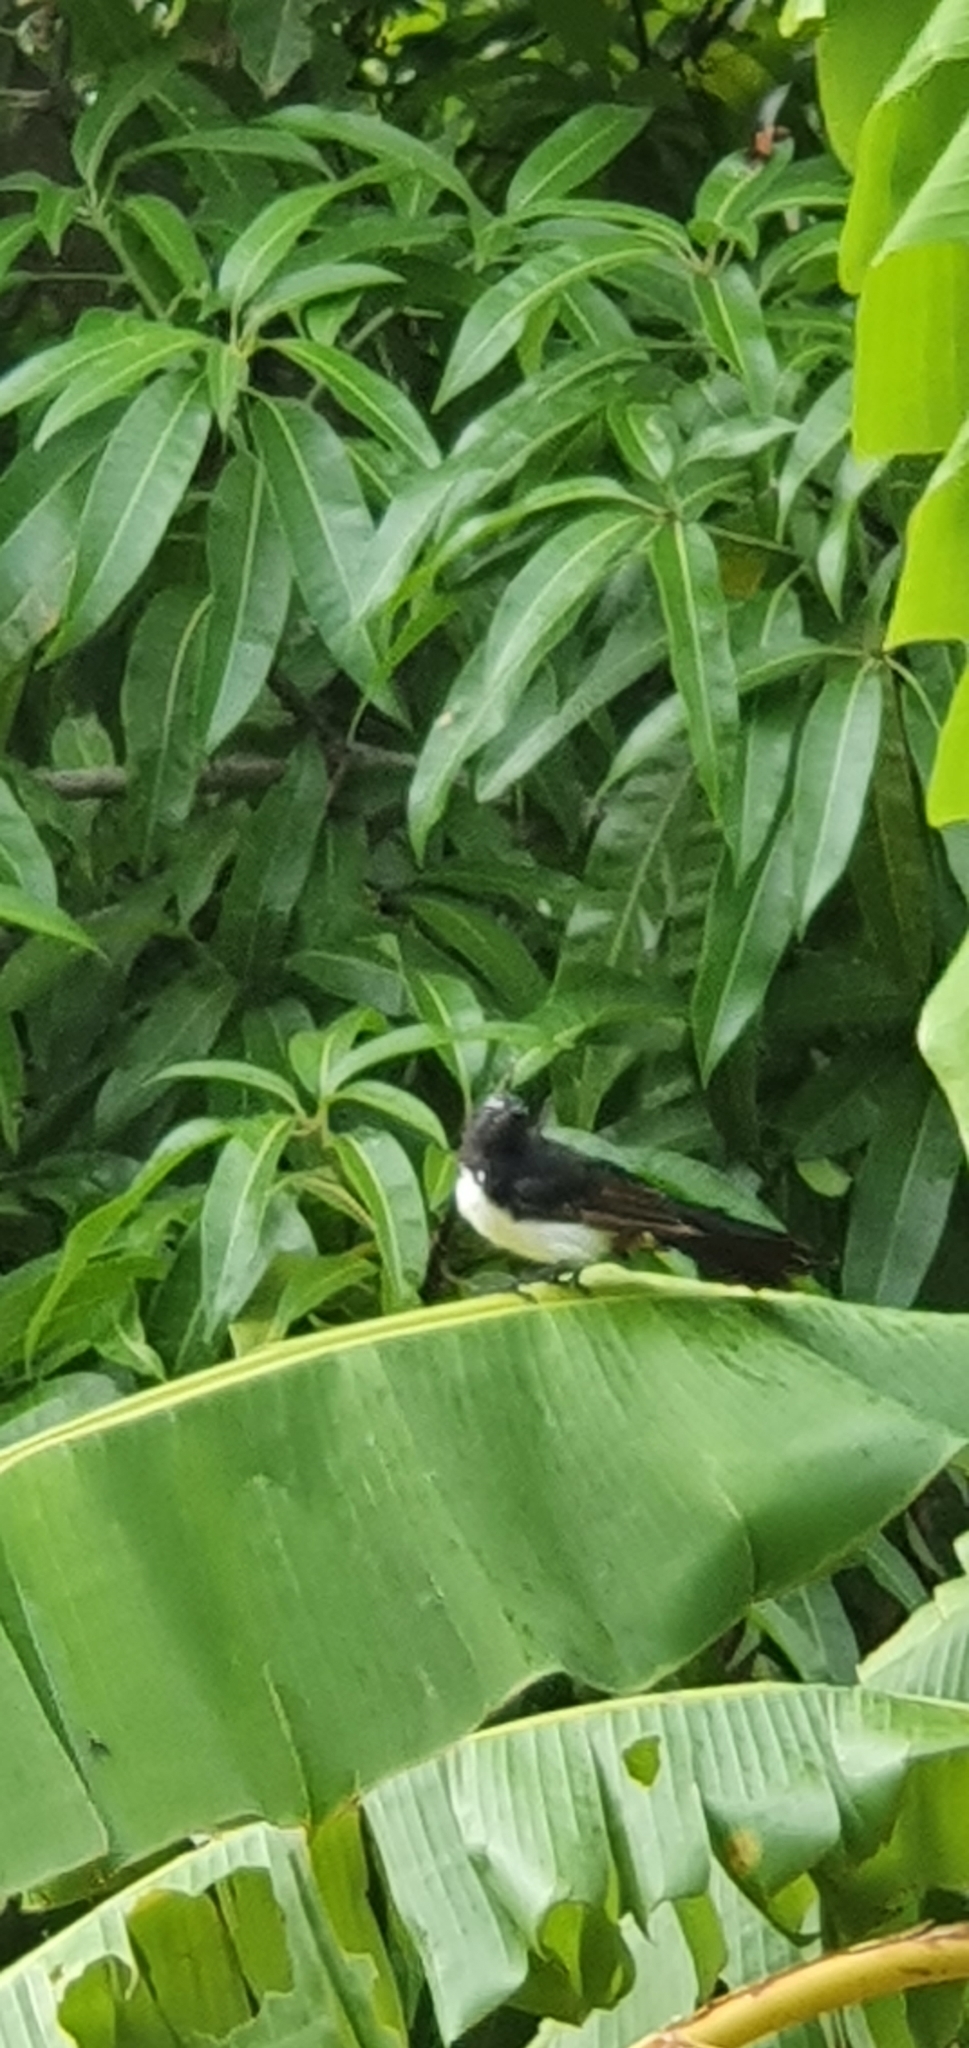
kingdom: Animalia
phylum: Chordata
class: Aves
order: Passeriformes
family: Rhipiduridae
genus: Rhipidura
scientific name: Rhipidura leucophrys
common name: Willie wagtail
